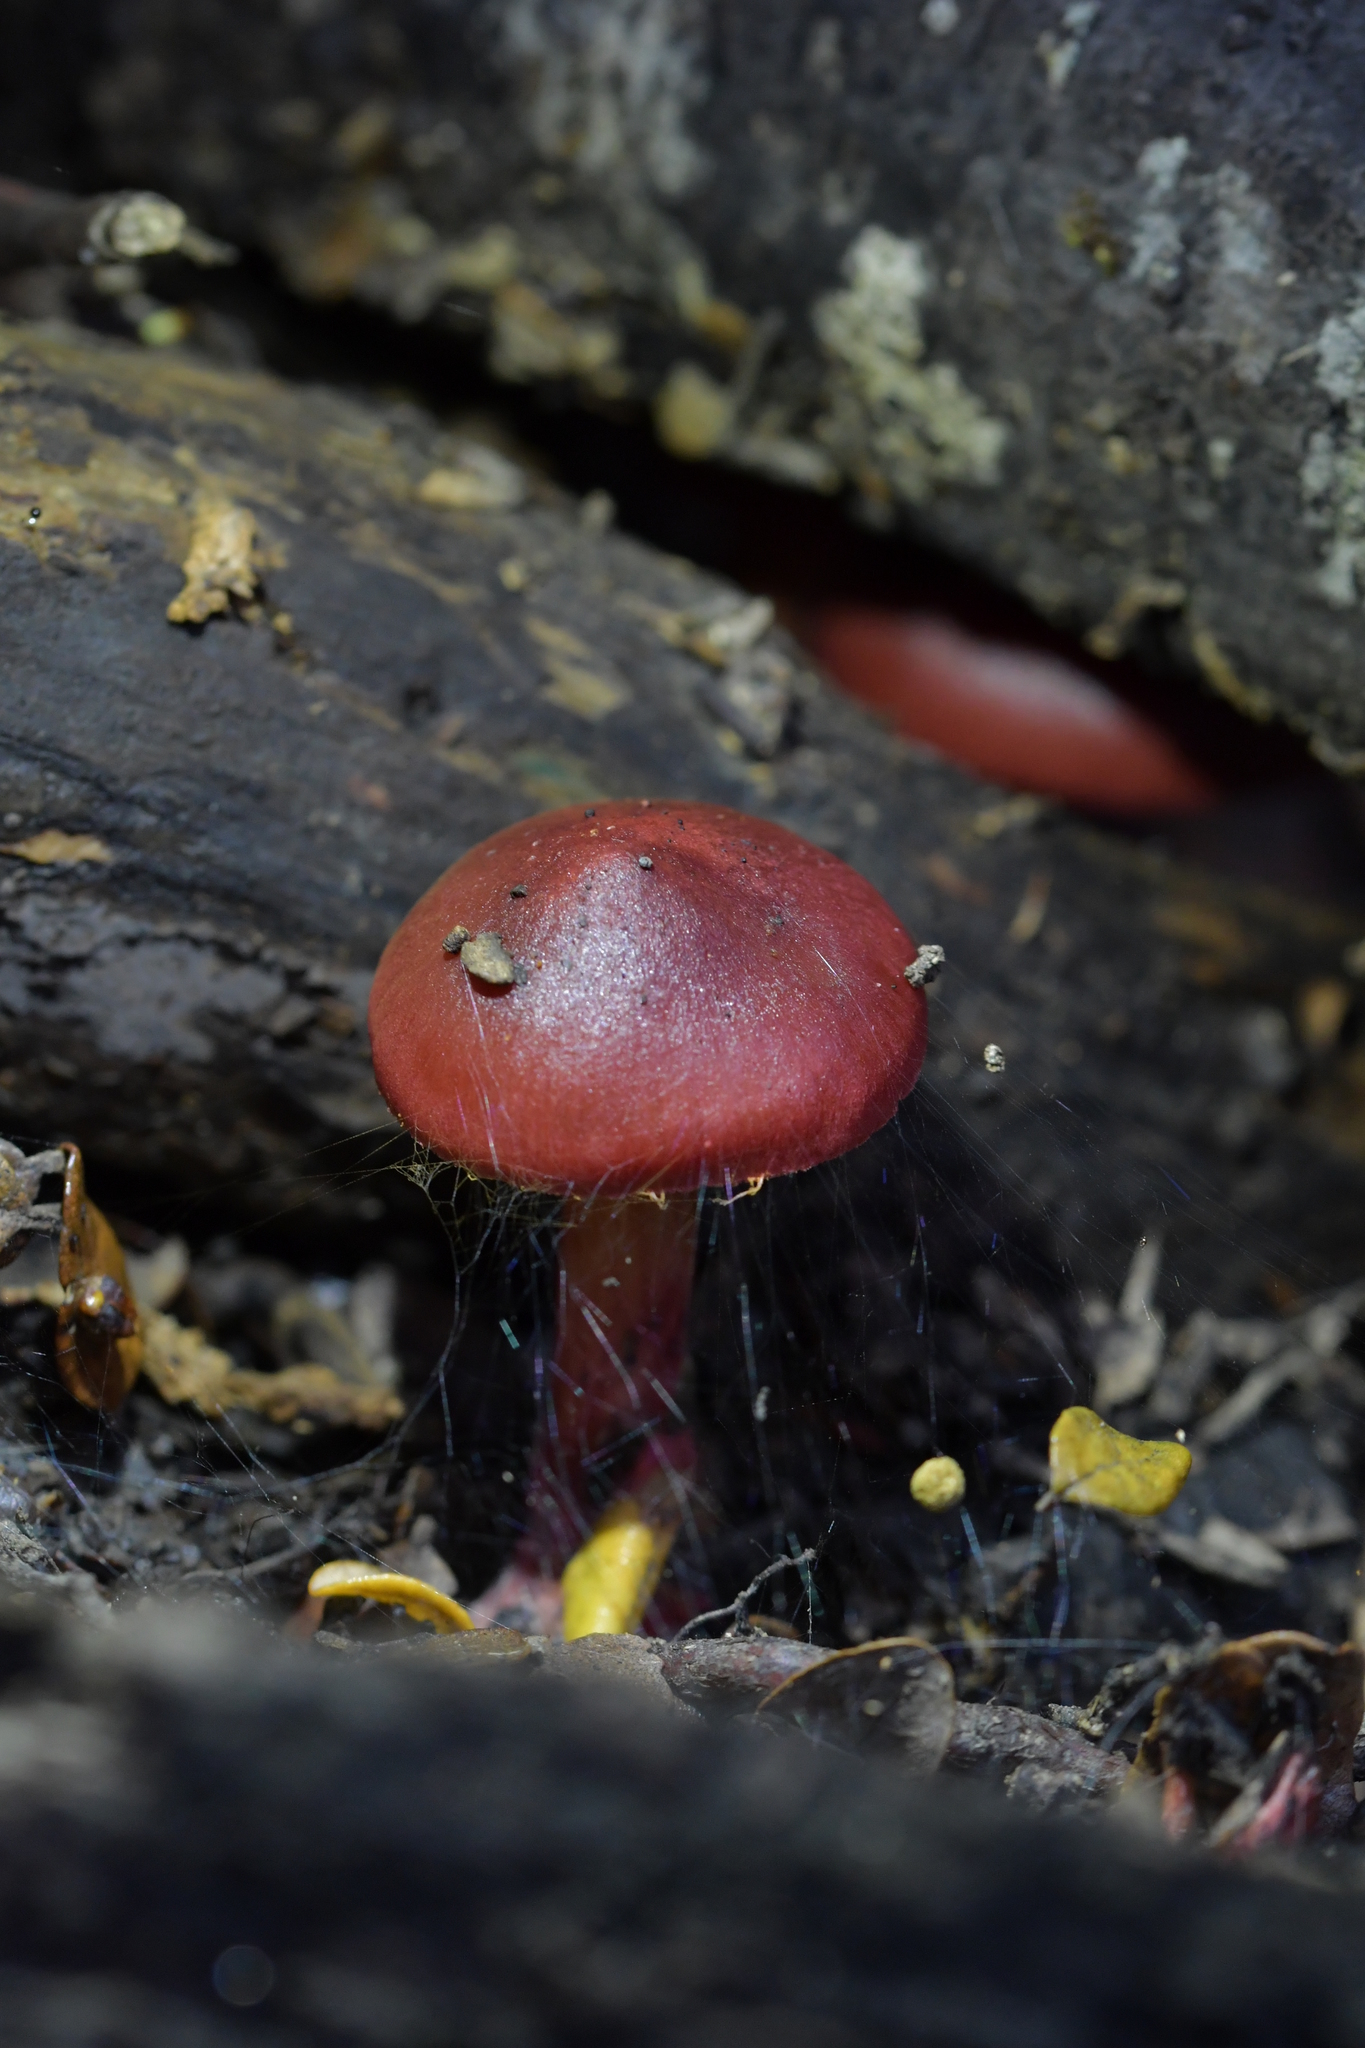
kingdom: Fungi
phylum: Basidiomycota
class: Agaricomycetes
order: Agaricales
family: Cortinariaceae
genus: Cortinarius
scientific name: Cortinarius cardinalis
